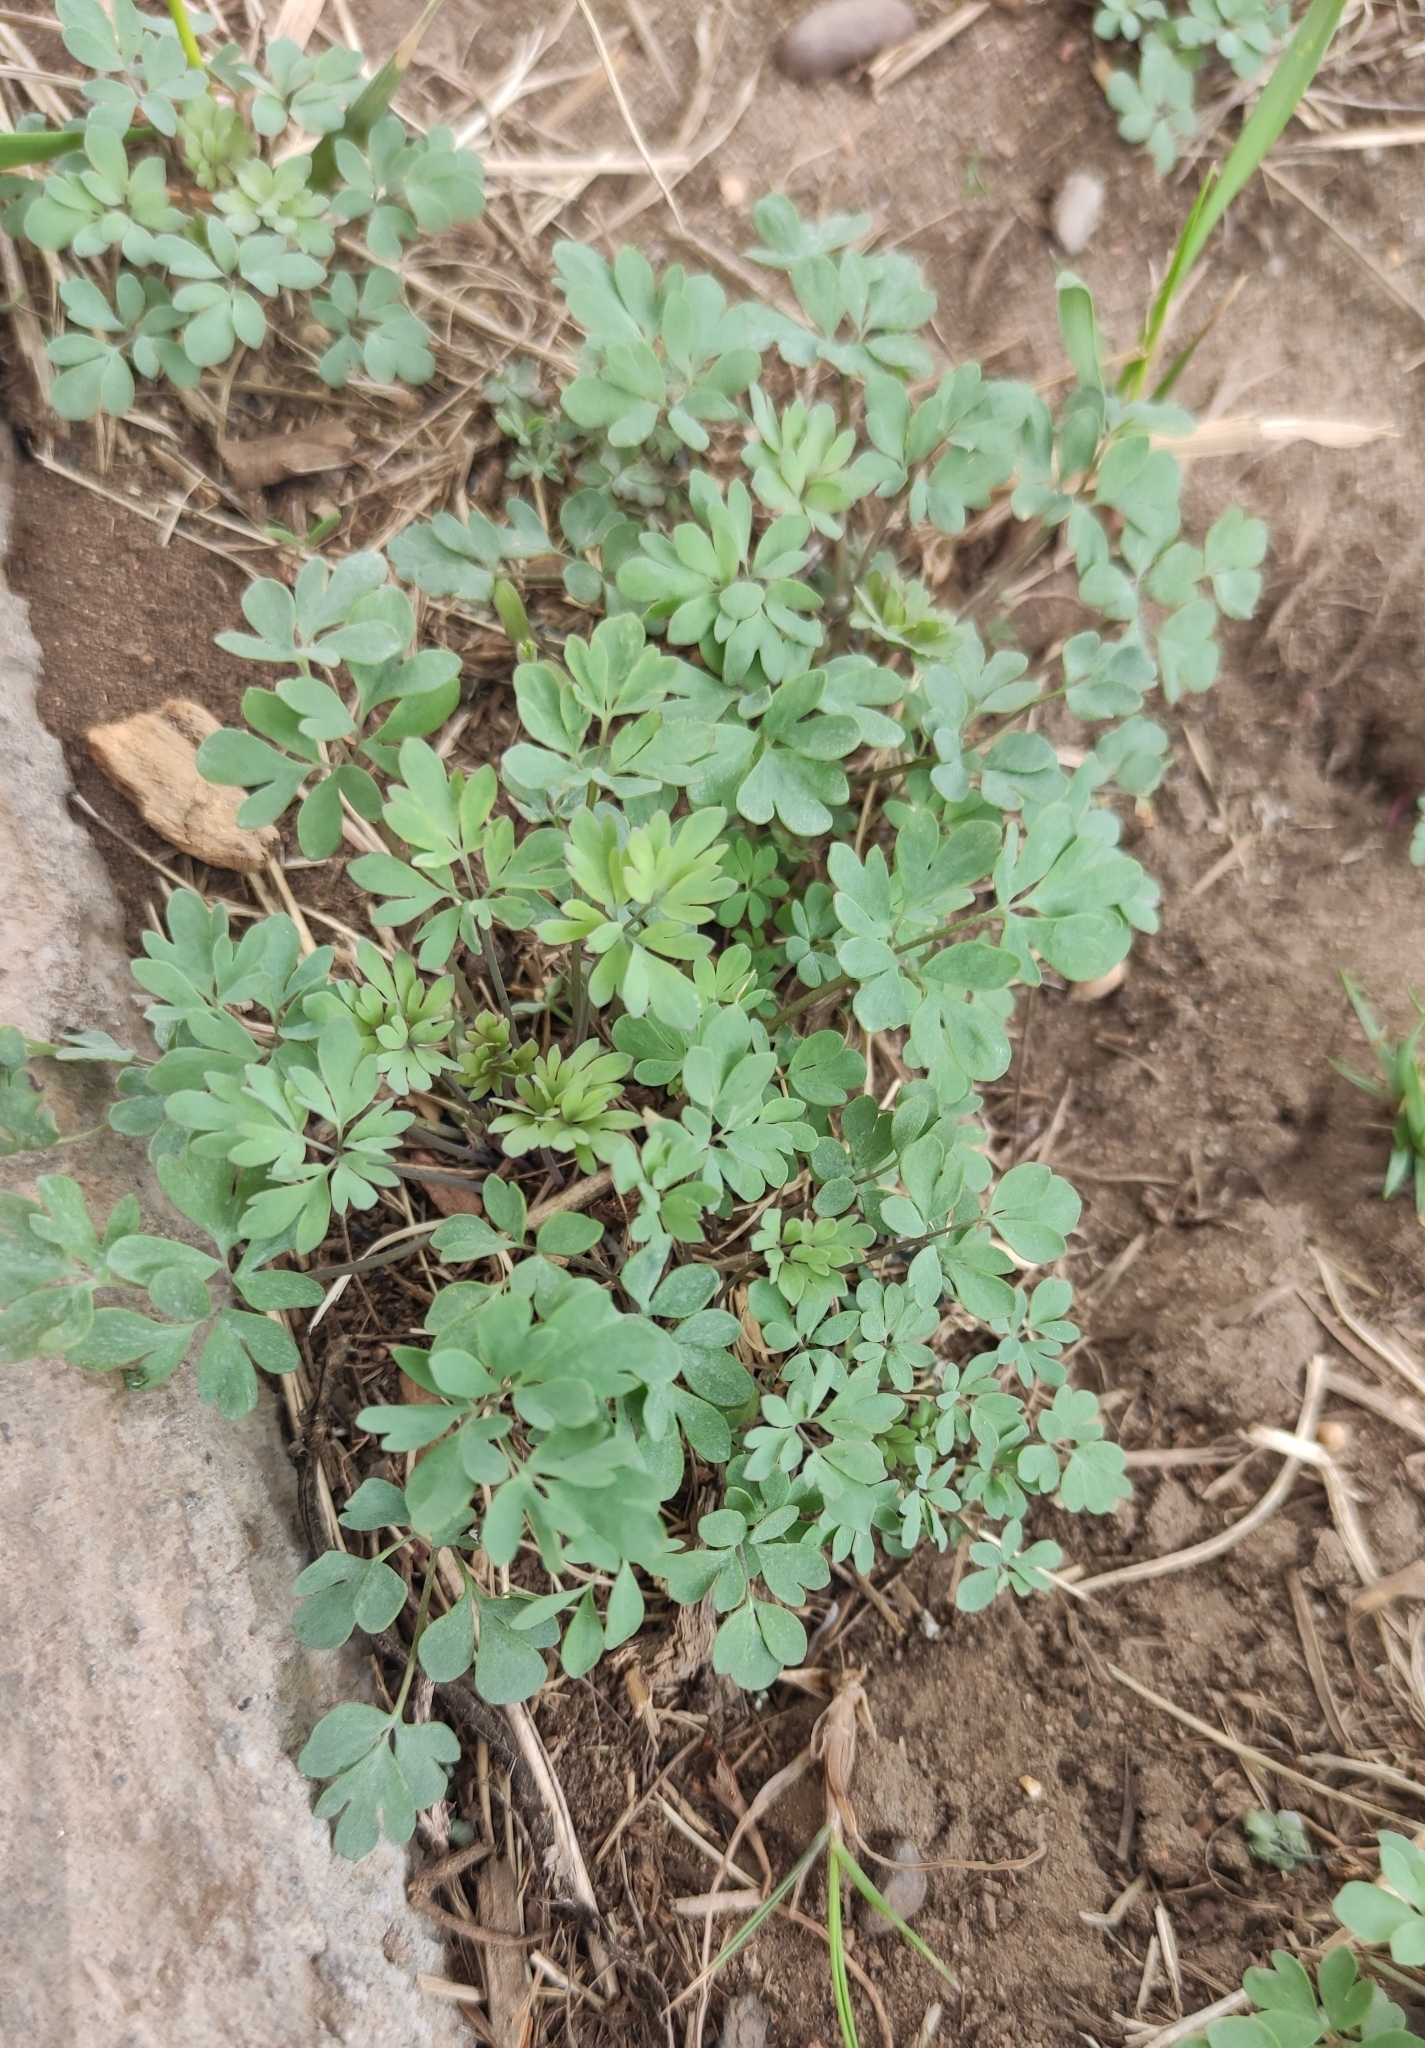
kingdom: Plantae
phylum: Tracheophyta
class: Magnoliopsida
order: Ranunculales
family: Ranunculaceae
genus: Leptopyrum
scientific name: Leptopyrum fumarioides
